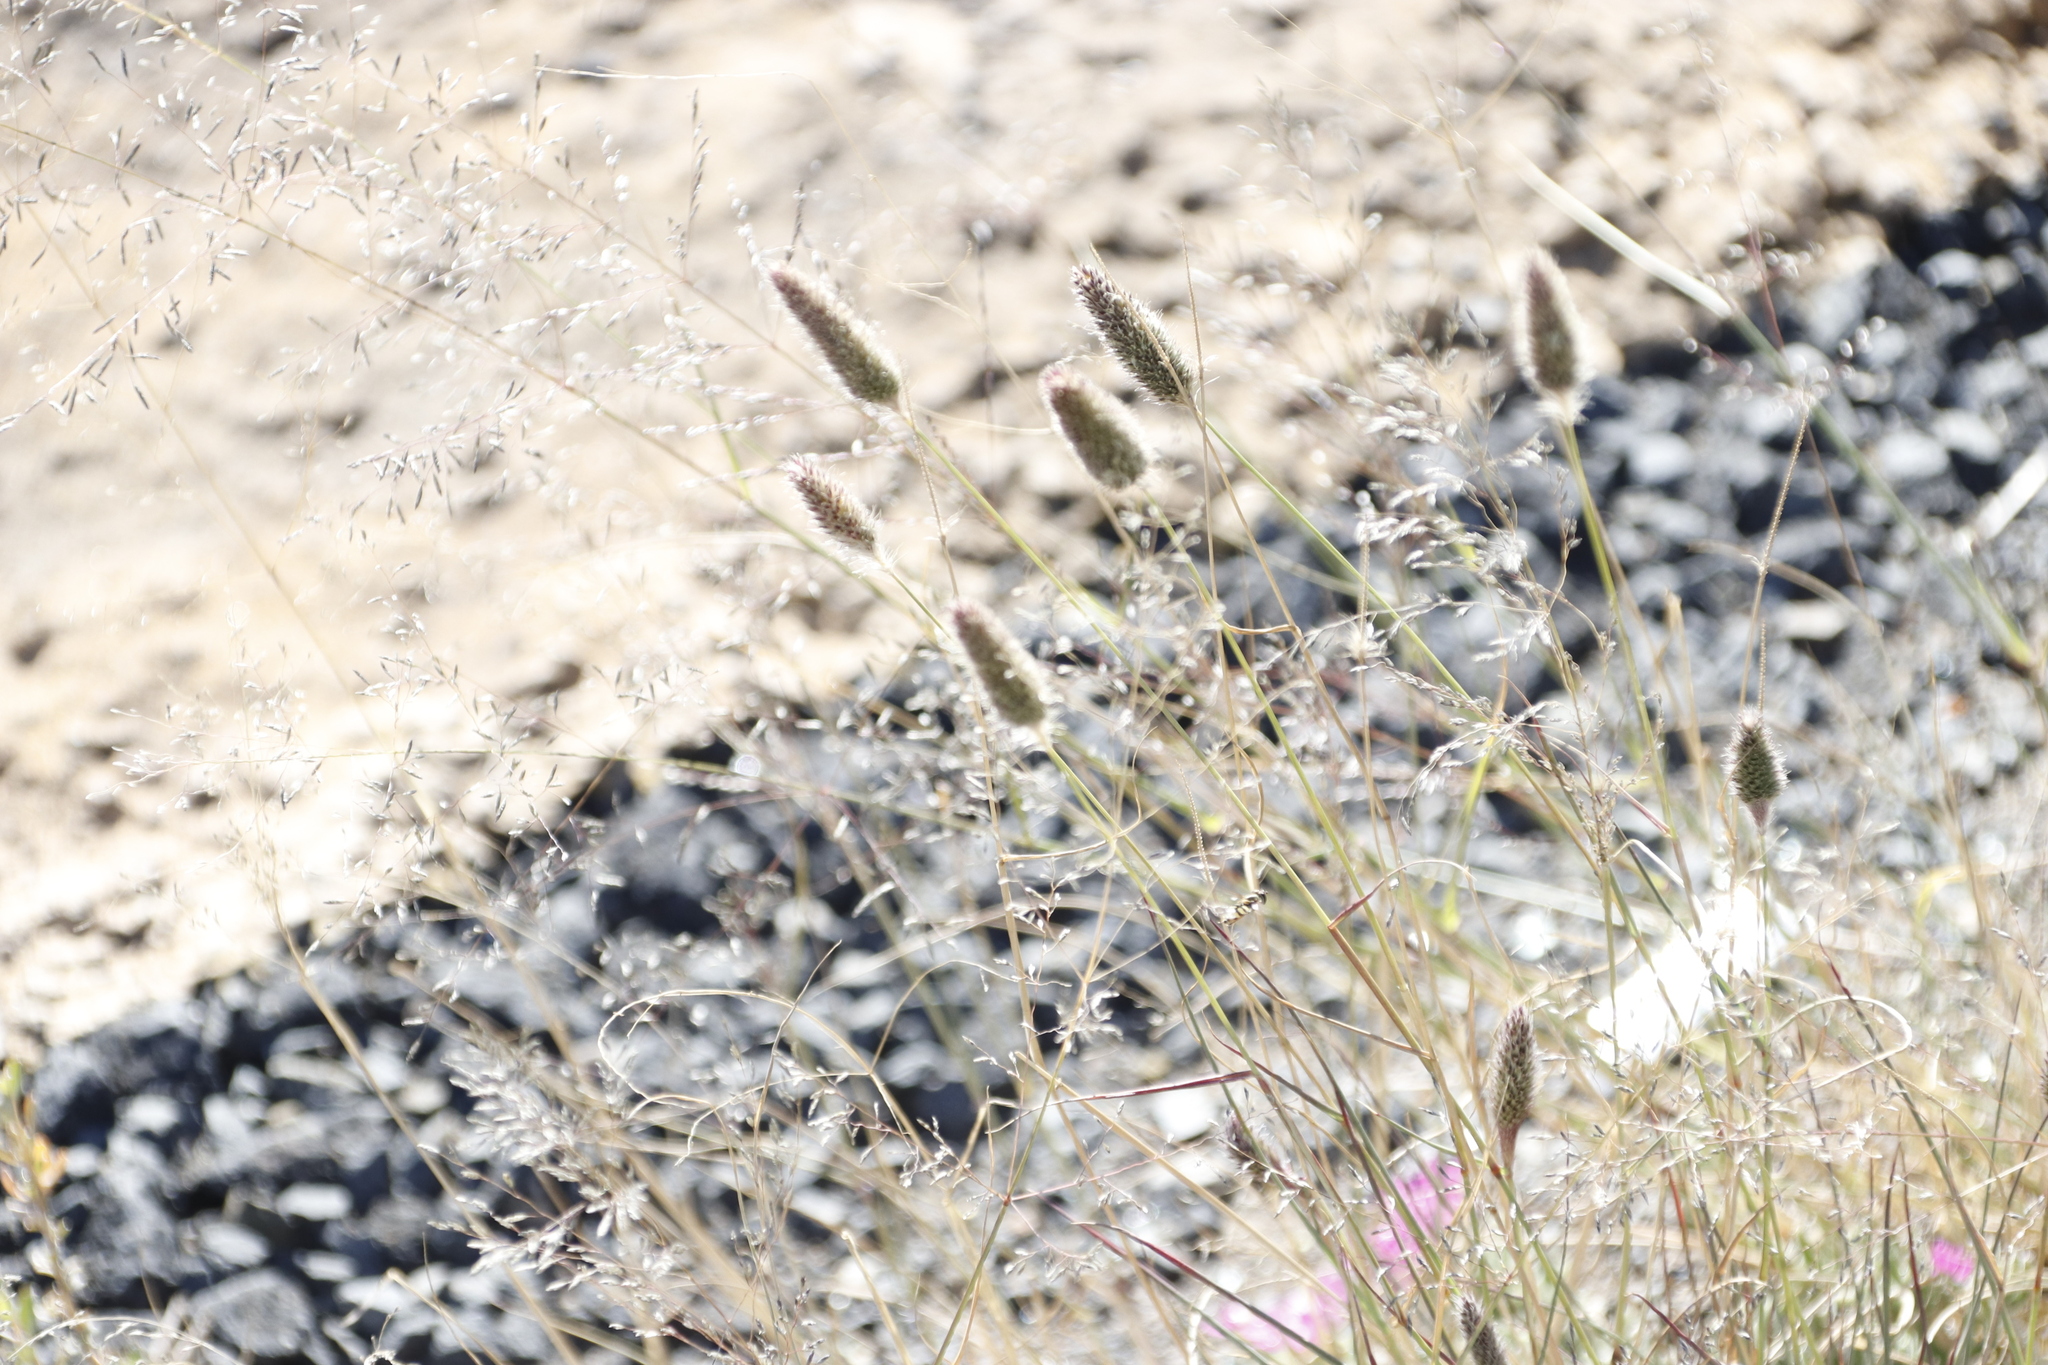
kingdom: Plantae
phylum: Tracheophyta
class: Liliopsida
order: Poales
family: Poaceae
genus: Fingerhuthia
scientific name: Fingerhuthia africana
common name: Zulu fescue
